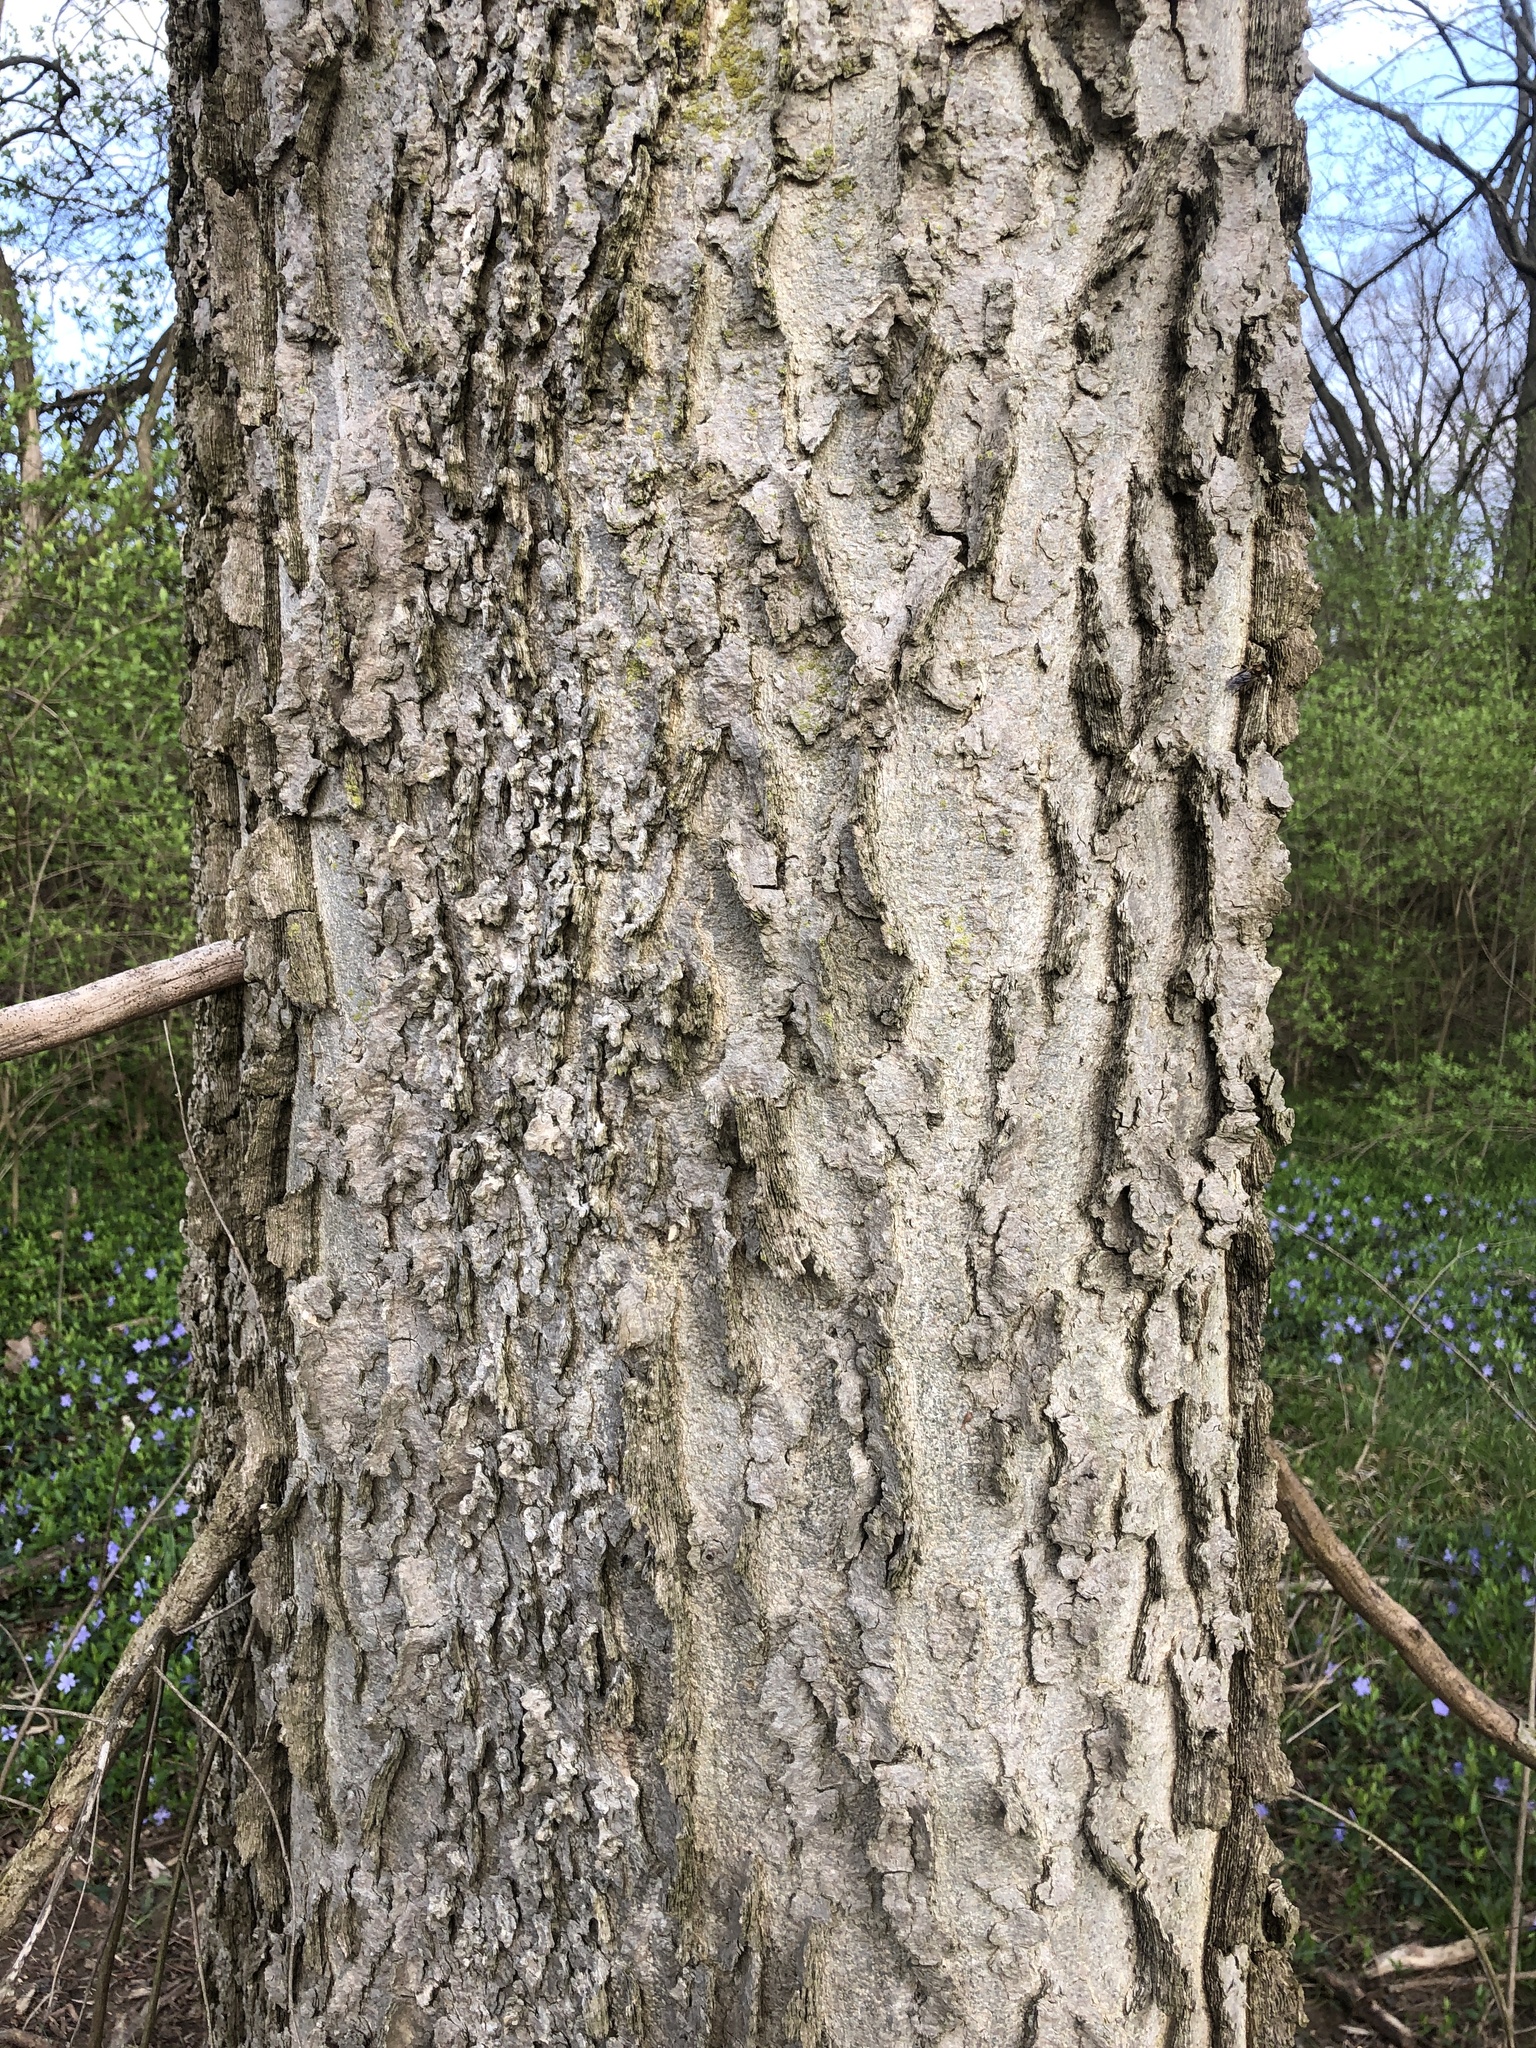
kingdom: Plantae
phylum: Tracheophyta
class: Magnoliopsida
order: Rosales
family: Cannabaceae
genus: Celtis
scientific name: Celtis occidentalis
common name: Common hackberry
